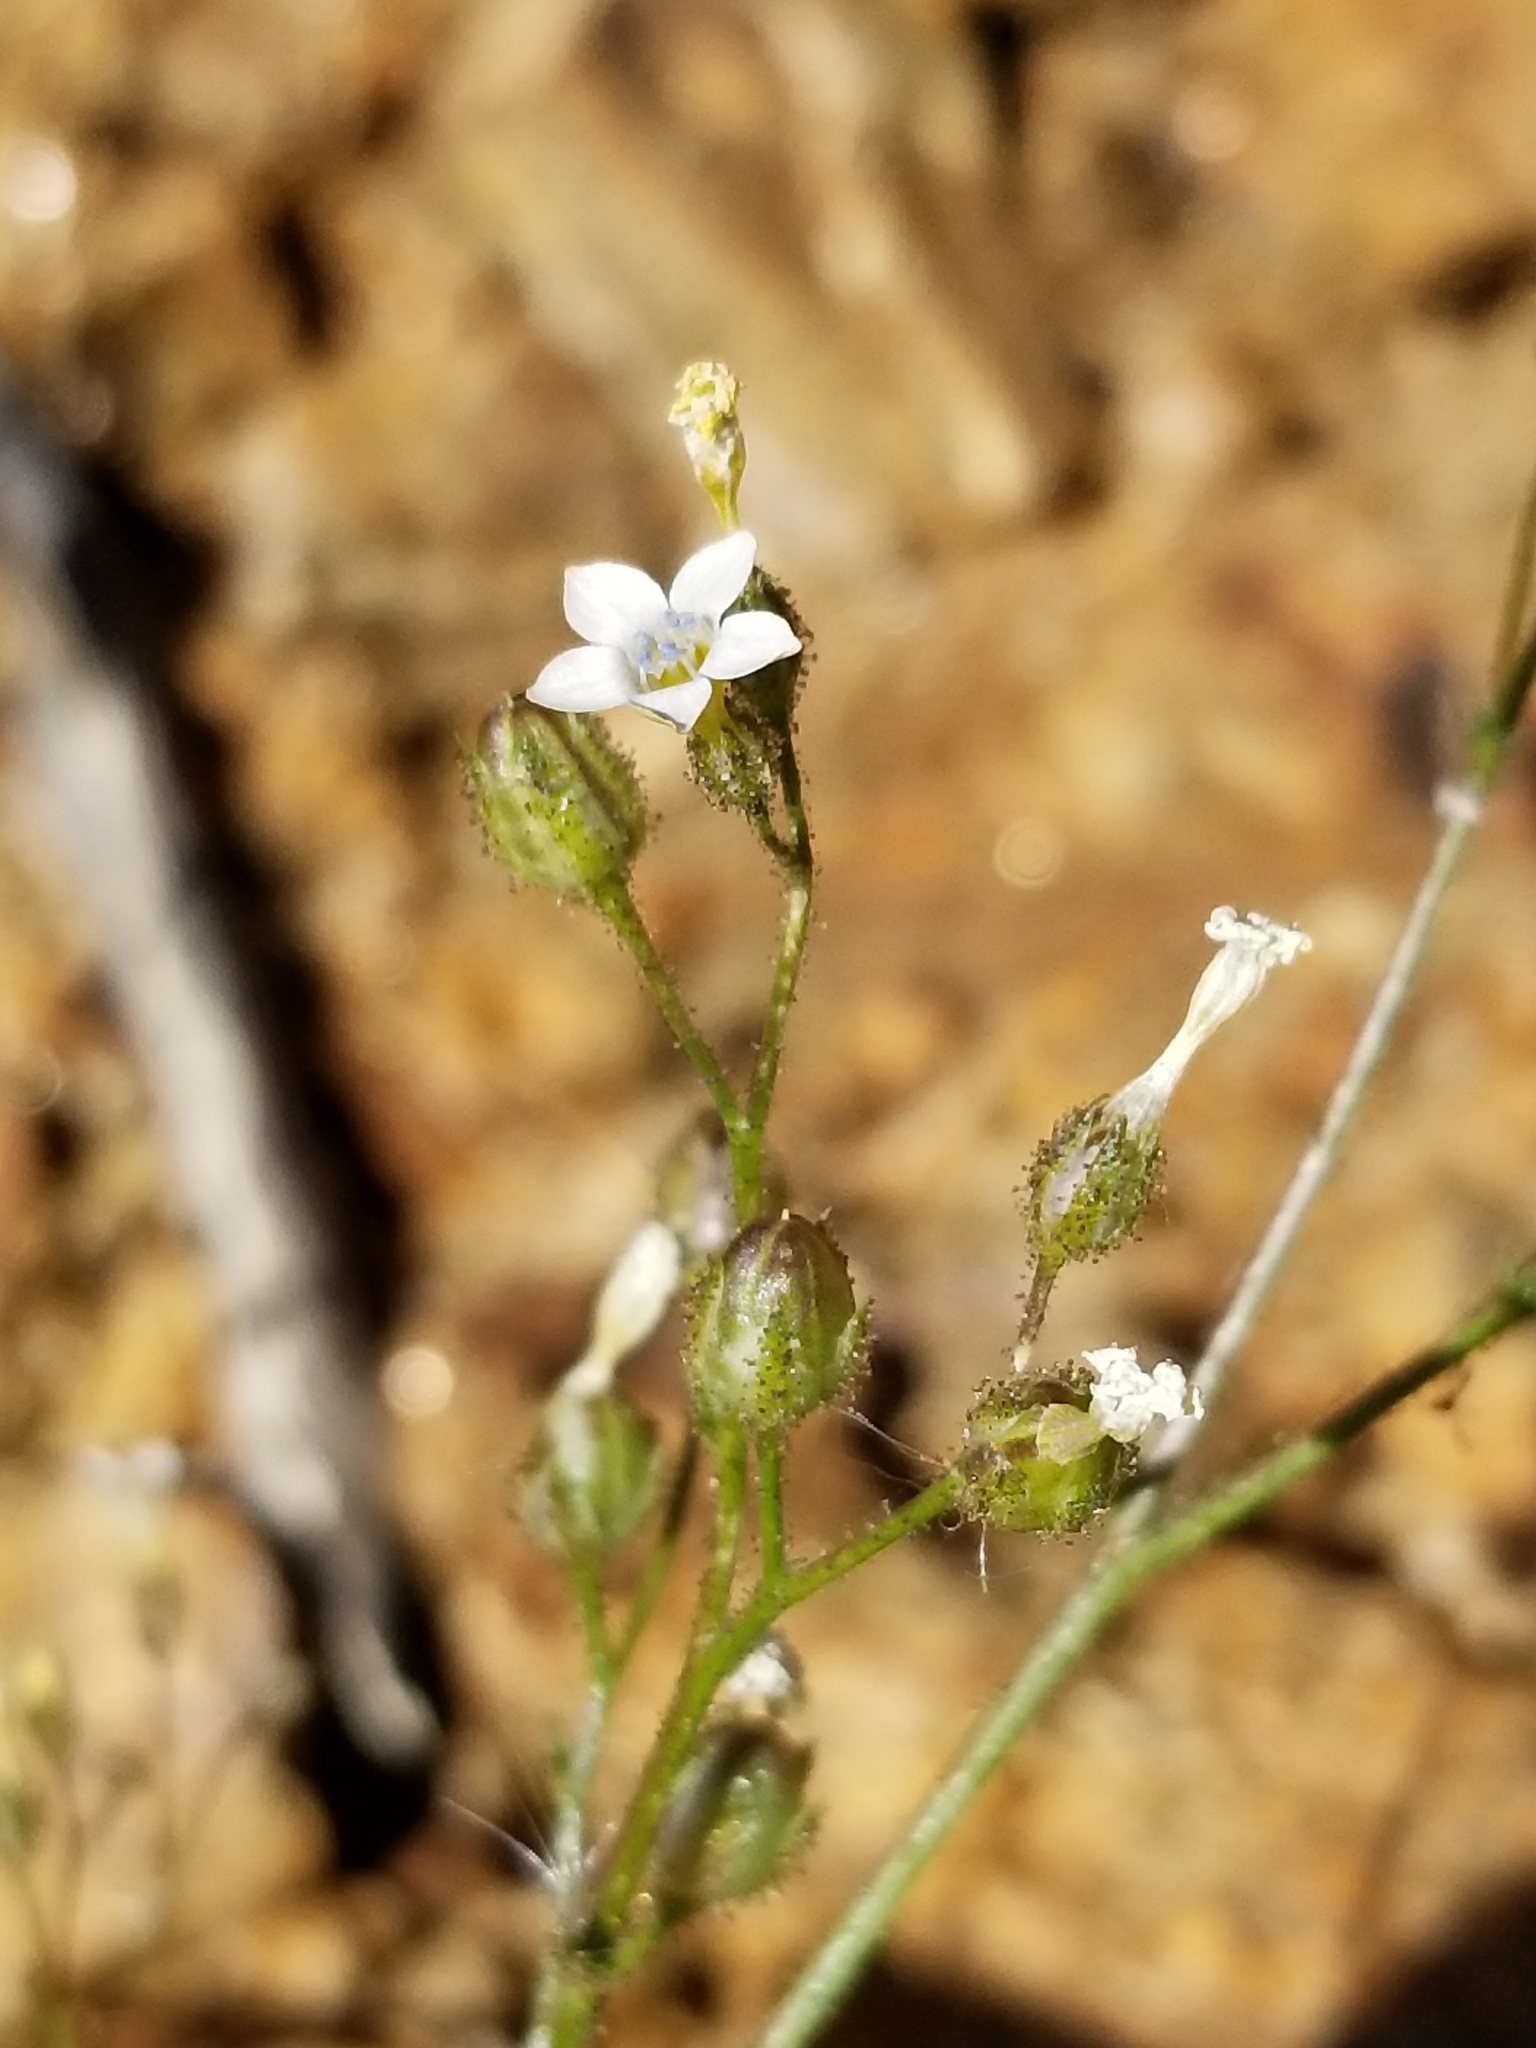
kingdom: Plantae
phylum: Tracheophyta
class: Magnoliopsida
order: Ericales
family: Polemoniaceae
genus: Gilia
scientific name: Gilia stellata
